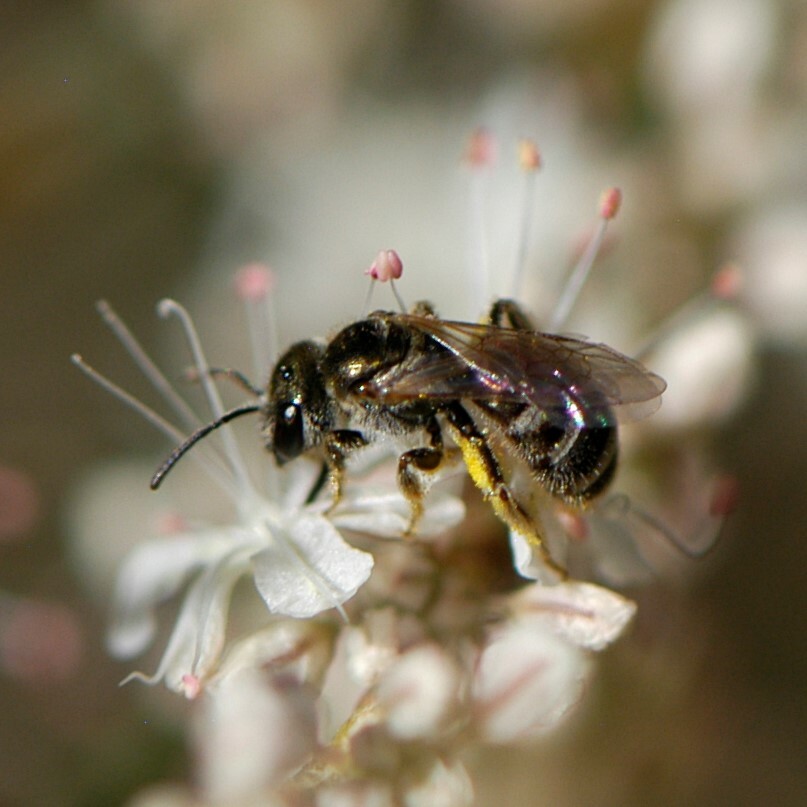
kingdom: Animalia
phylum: Arthropoda
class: Insecta
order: Hymenoptera
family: Halictidae
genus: Halictus
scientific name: Halictus tripartitus
